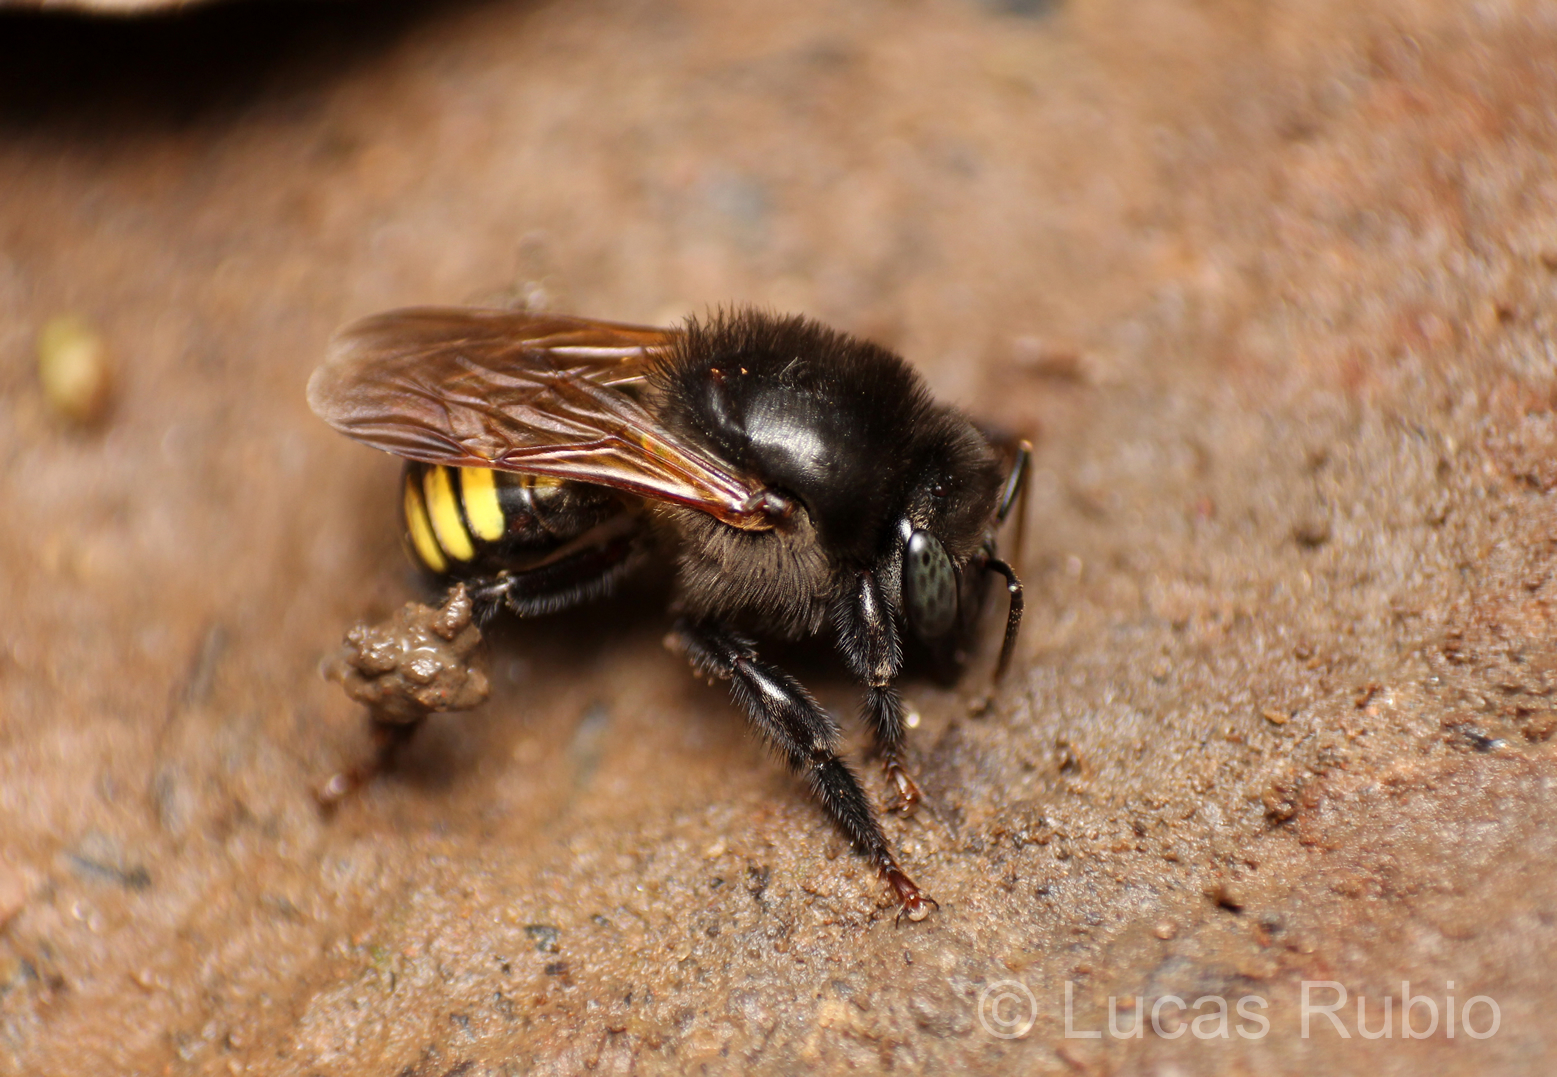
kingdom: Animalia
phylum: Arthropoda
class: Insecta
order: Hymenoptera
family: Apidae
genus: Melipona
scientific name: Melipona quadrifasciata
